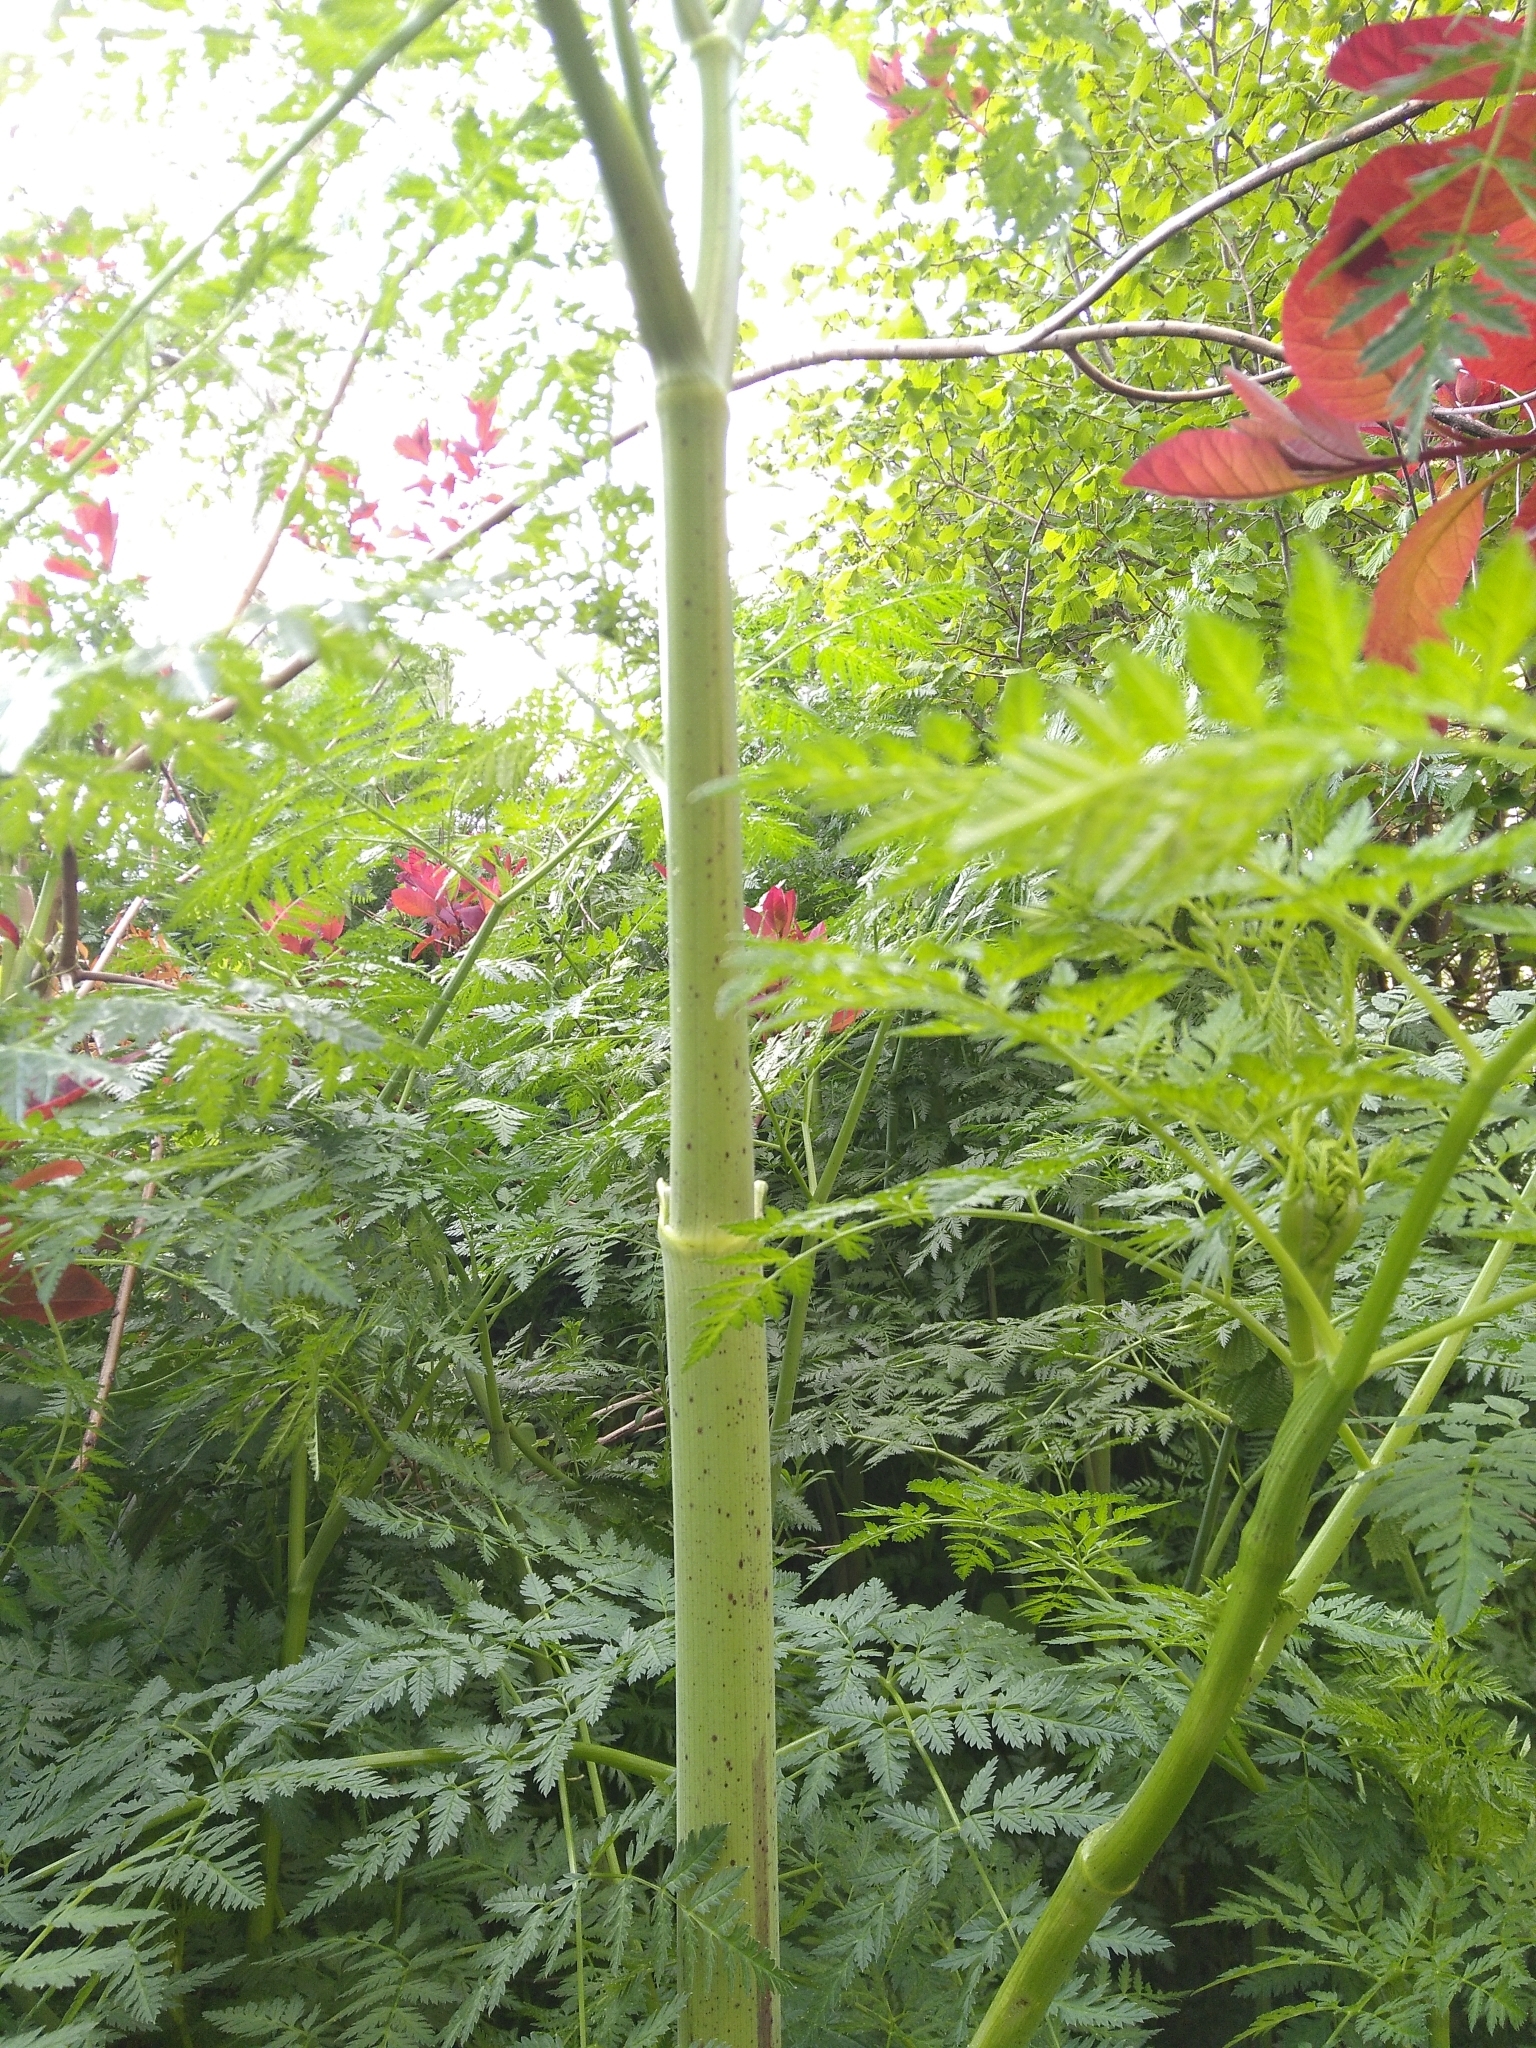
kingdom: Plantae
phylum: Tracheophyta
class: Magnoliopsida
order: Apiales
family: Apiaceae
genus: Conium
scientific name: Conium maculatum
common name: Hemlock
